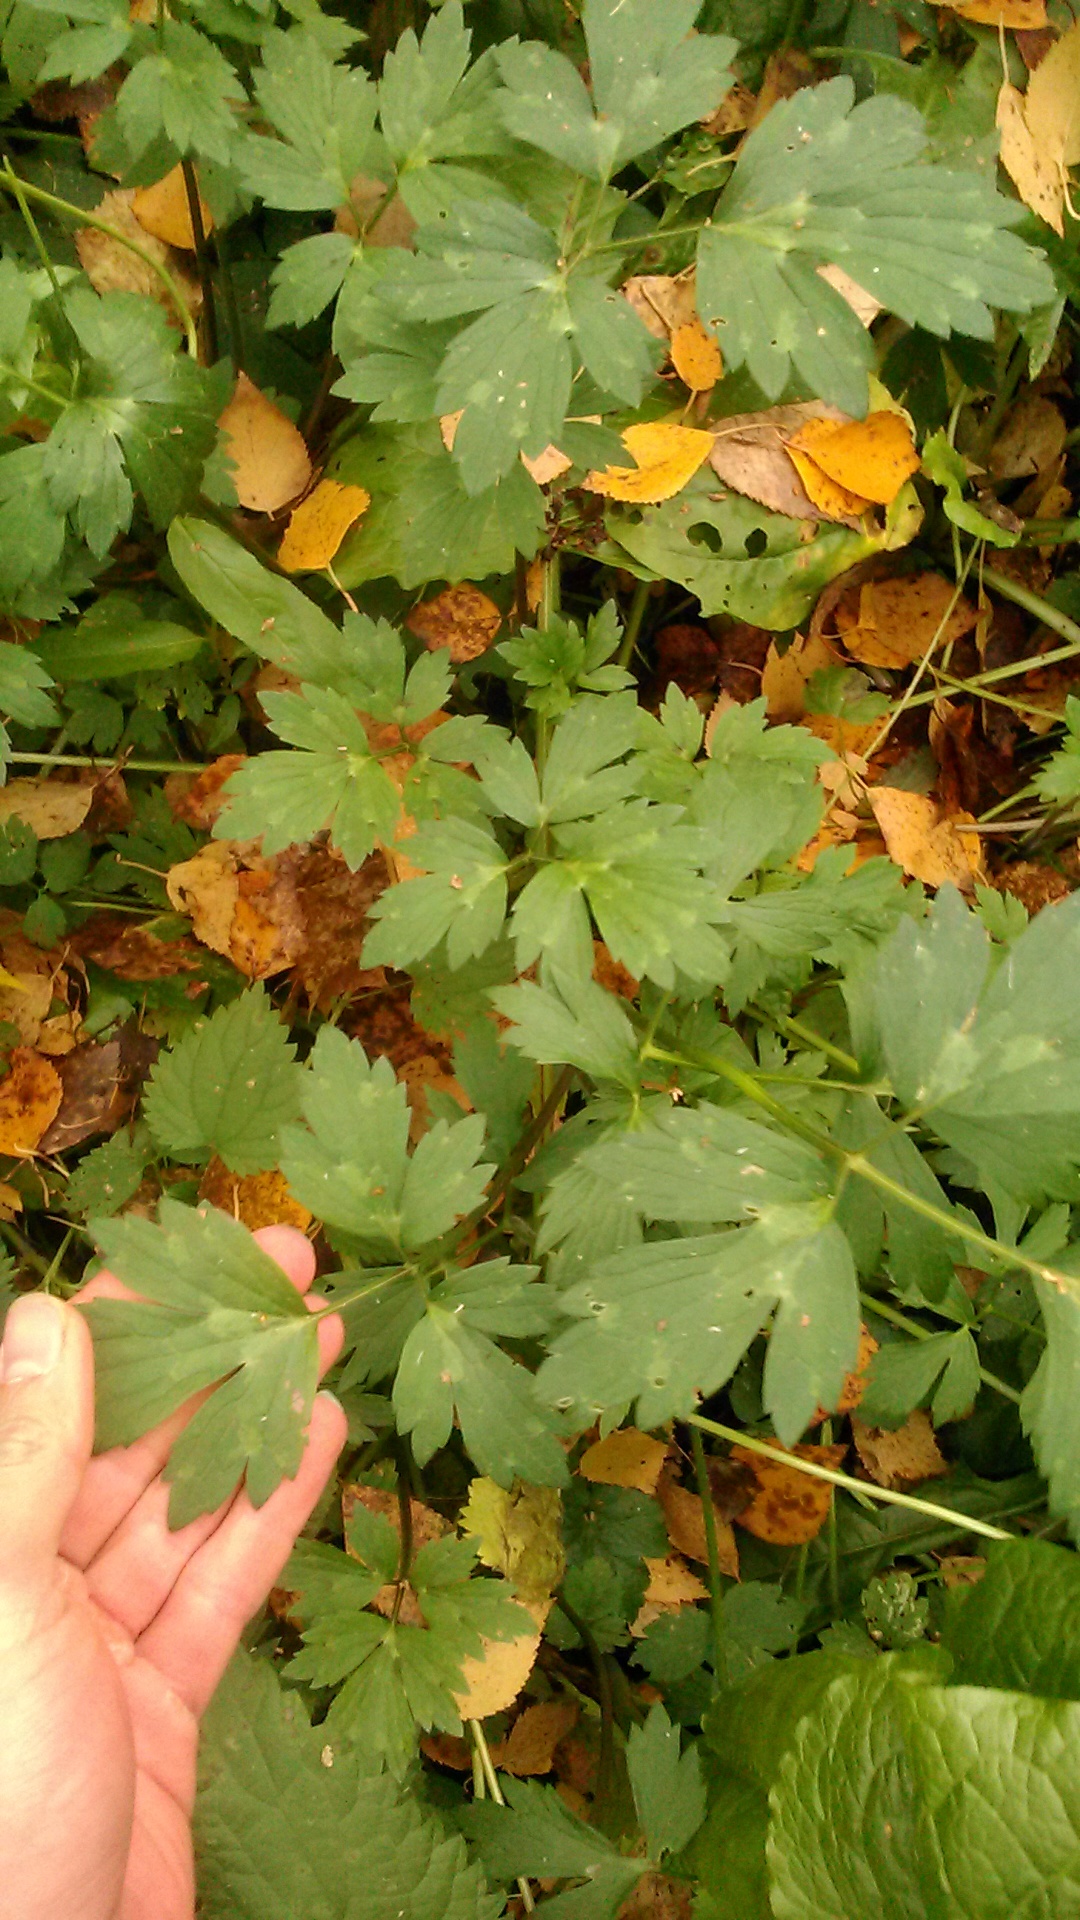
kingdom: Plantae
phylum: Tracheophyta
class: Magnoliopsida
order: Ranunculales
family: Ranunculaceae
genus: Ranunculus
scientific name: Ranunculus repens
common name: Creeping buttercup
